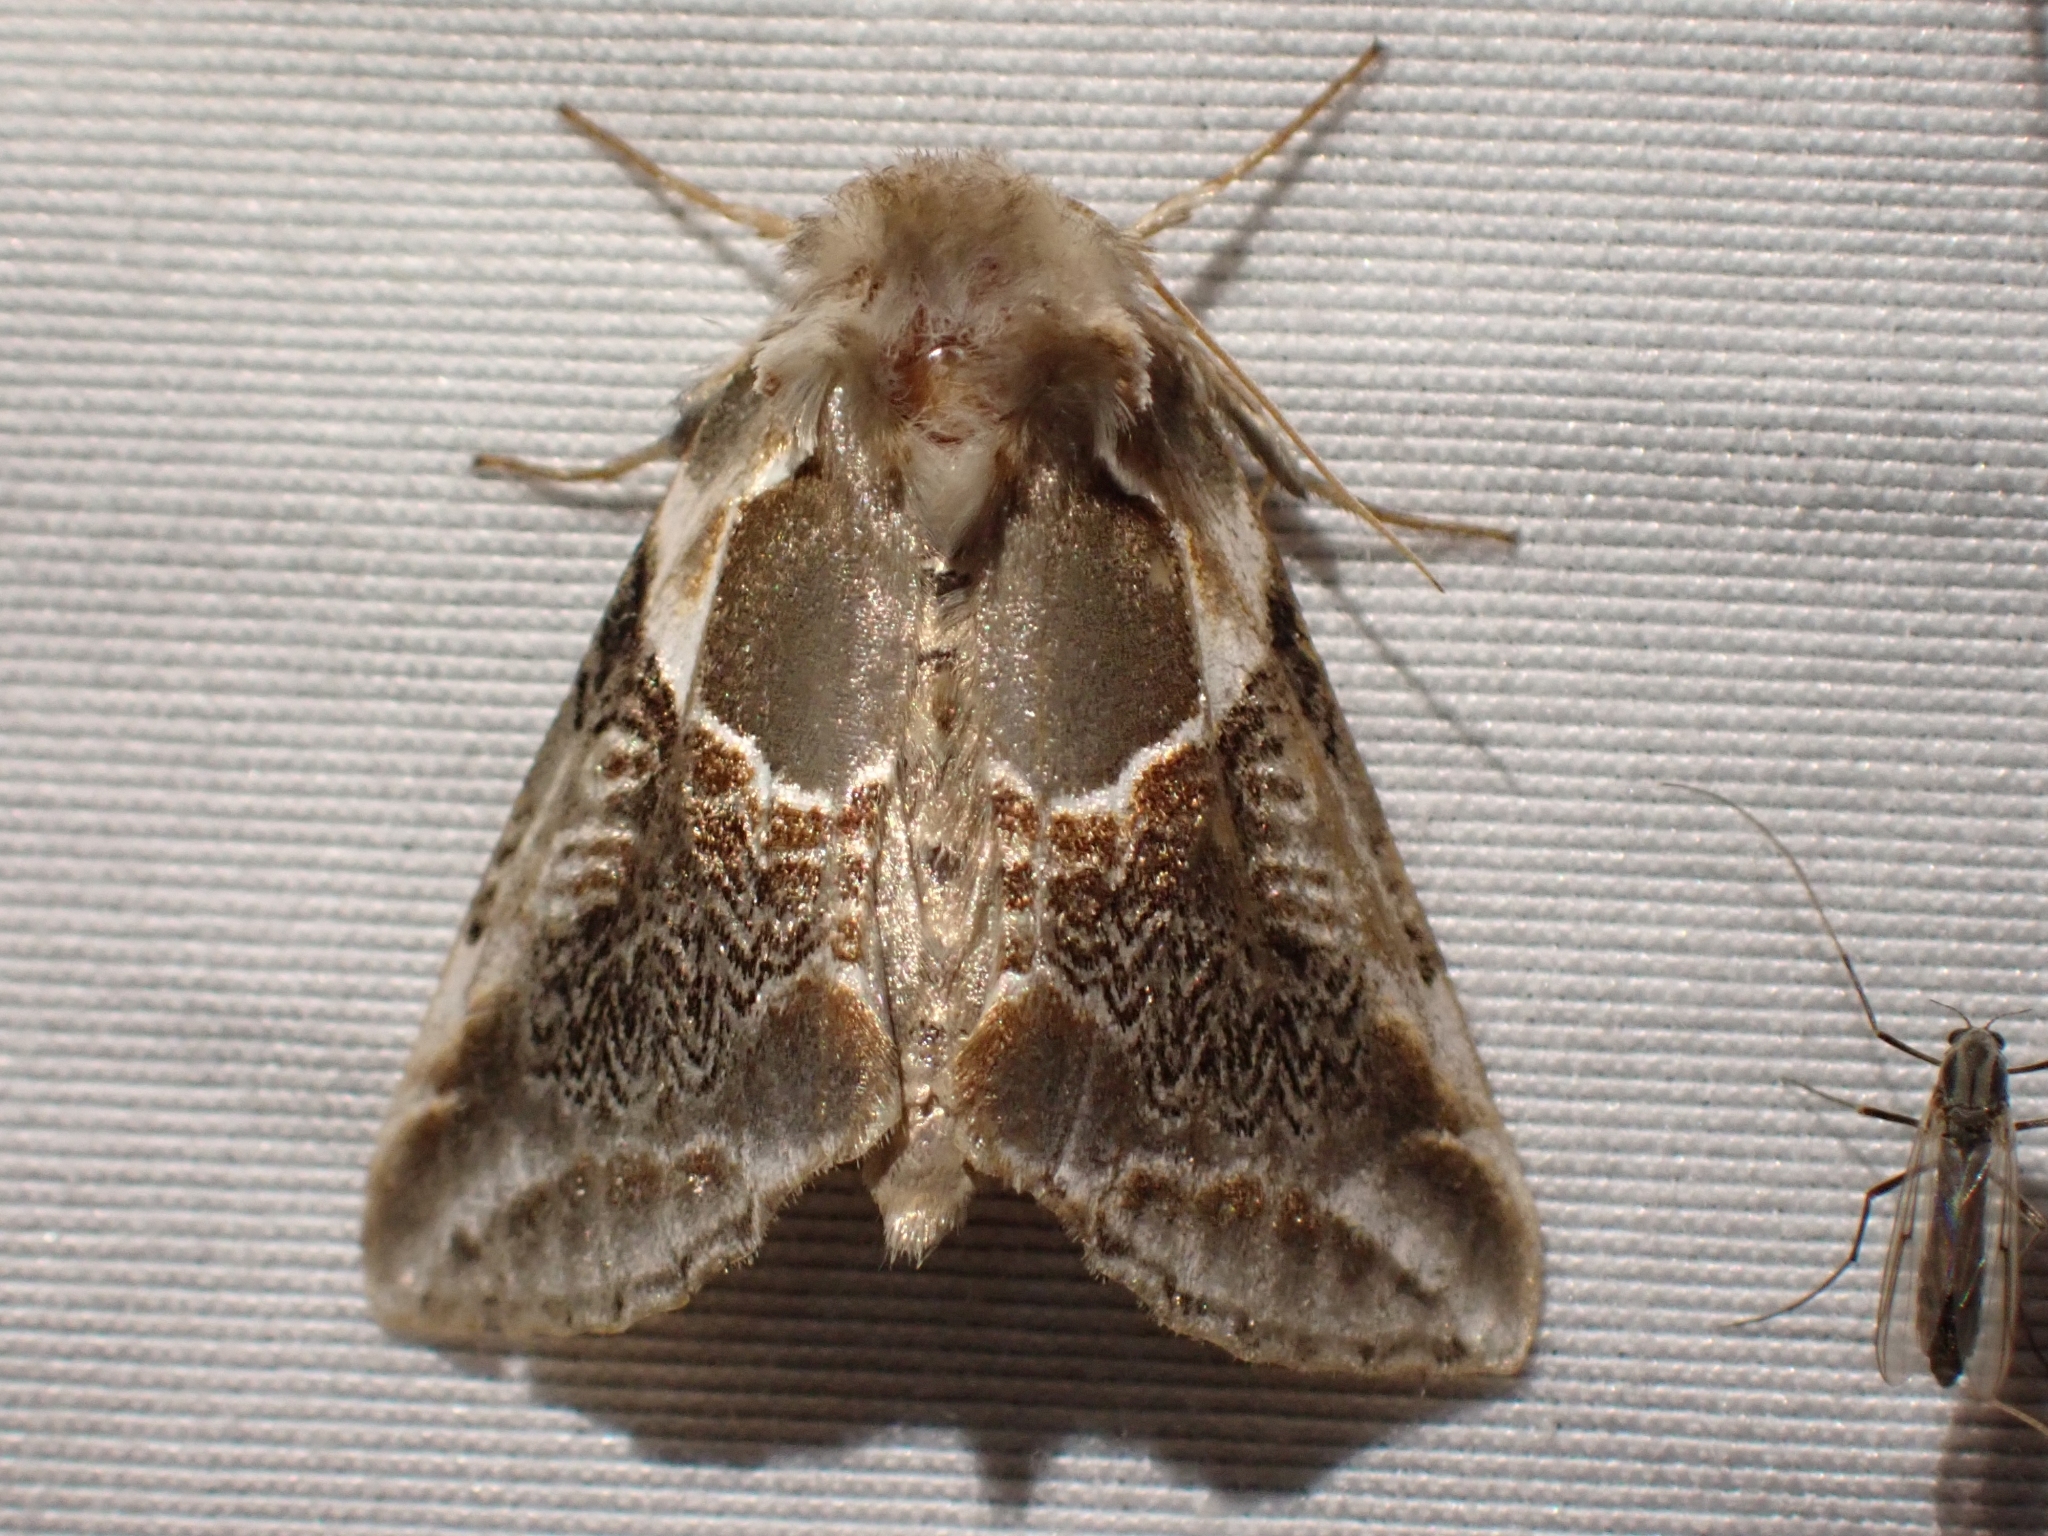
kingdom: Animalia
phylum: Arthropoda
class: Insecta
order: Lepidoptera
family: Drepanidae
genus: Habrosyne
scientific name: Habrosyne scripta
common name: Lettered habrosyne moth
